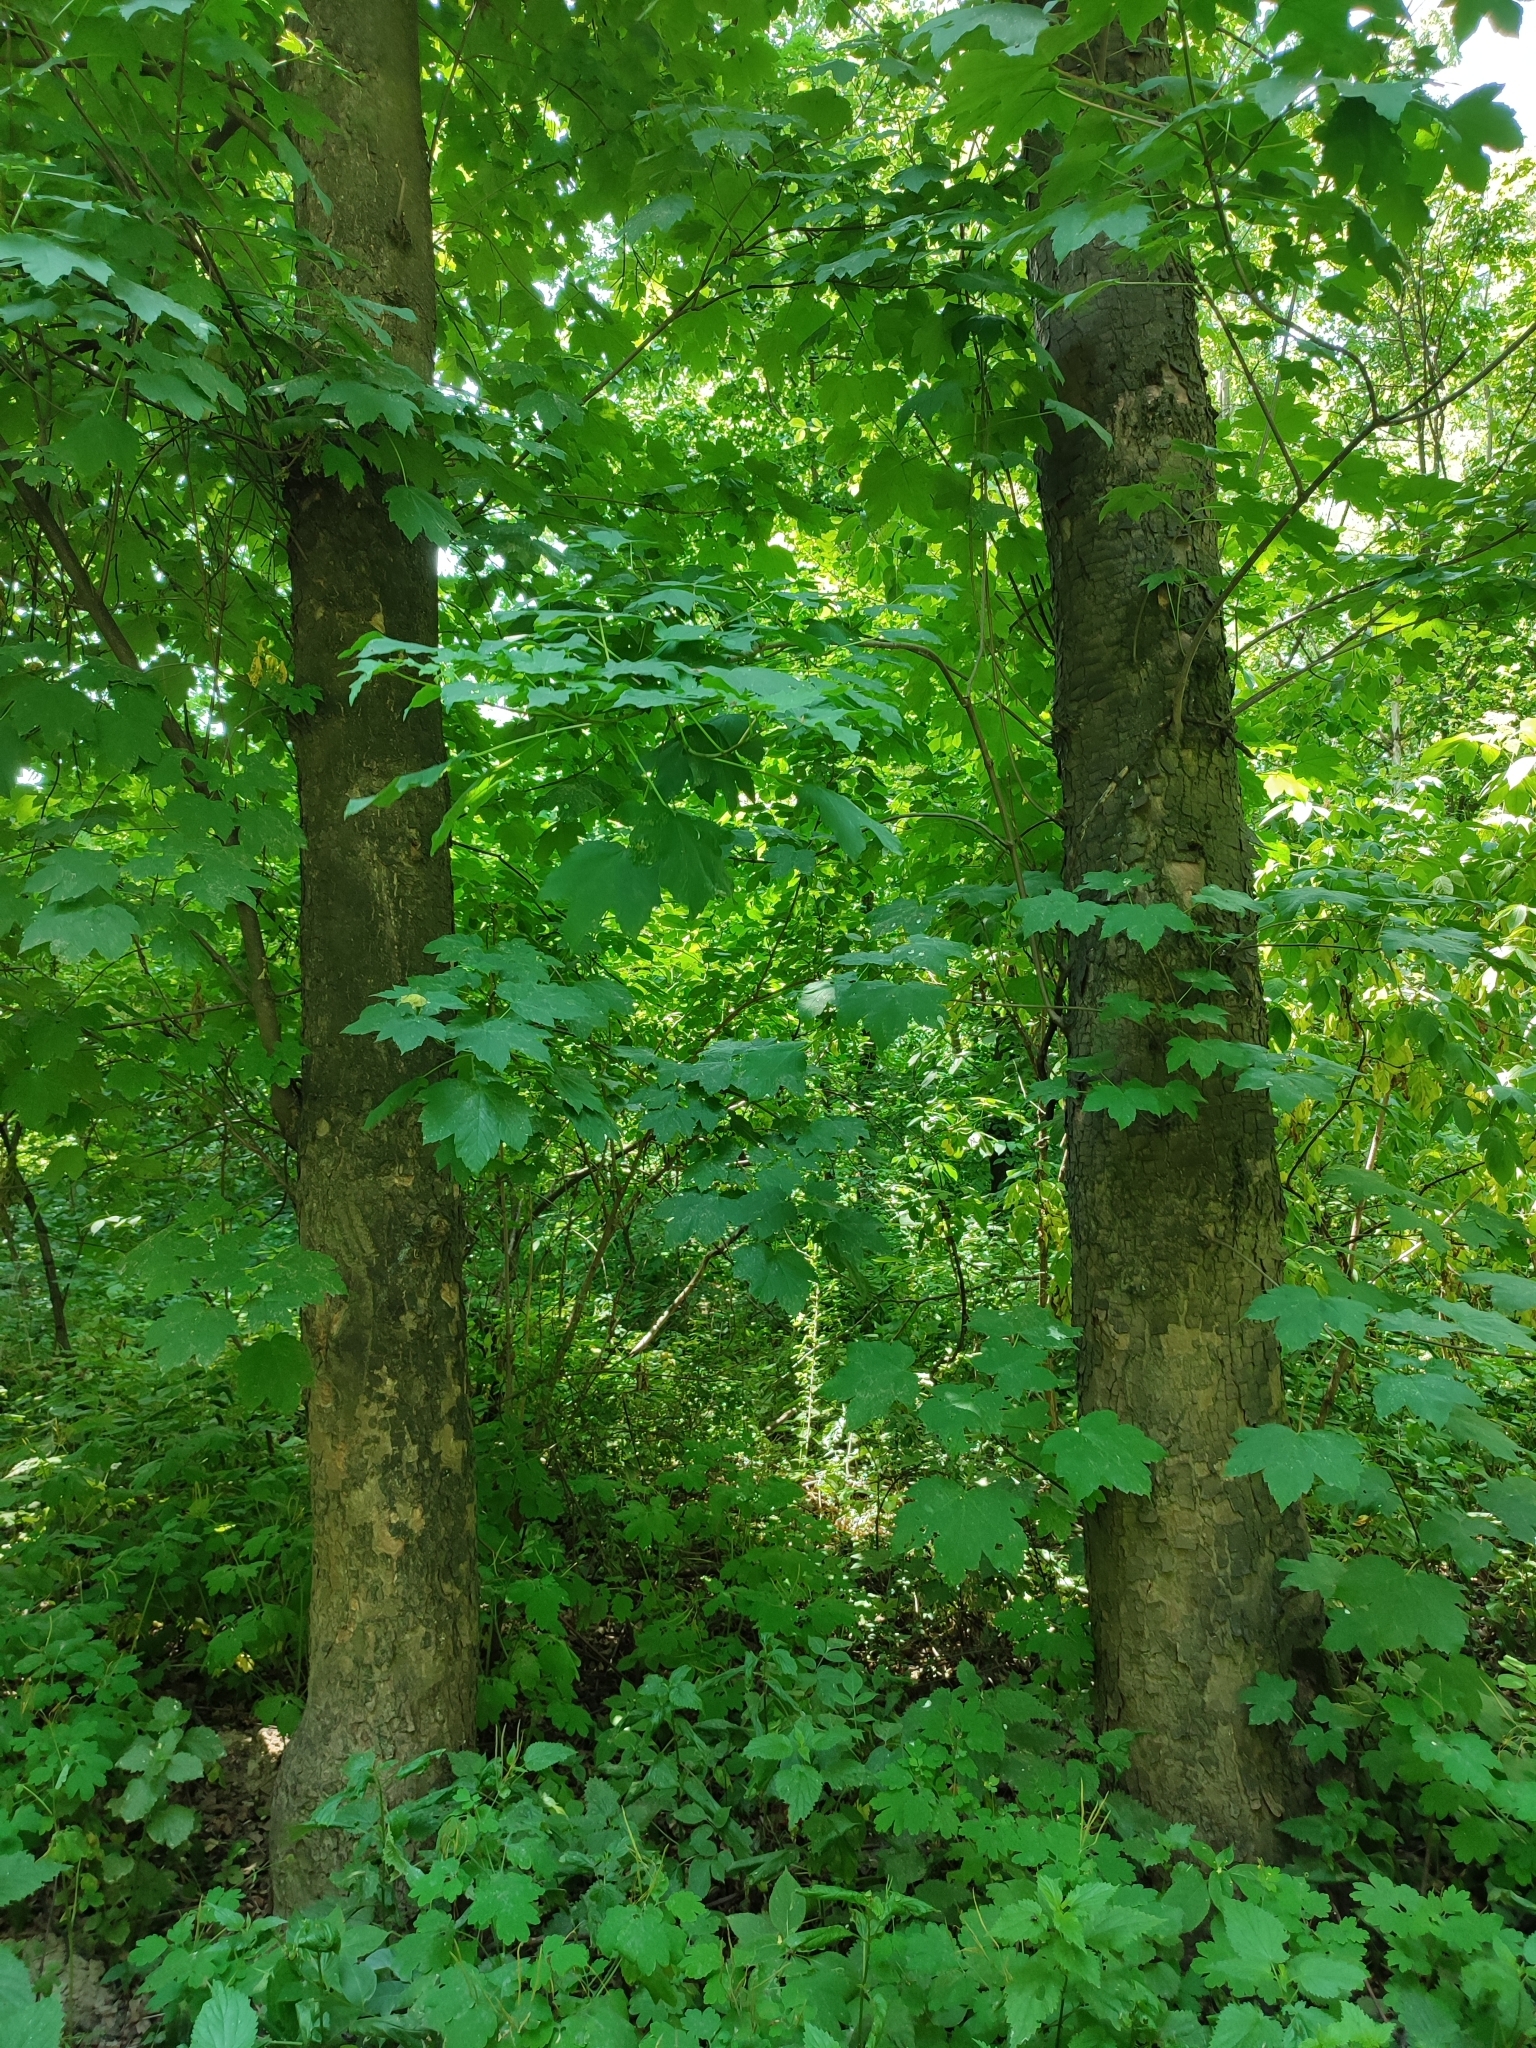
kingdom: Plantae
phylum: Tracheophyta
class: Magnoliopsida
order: Sapindales
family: Sapindaceae
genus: Acer
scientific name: Acer pseudoplatanus
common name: Sycamore
